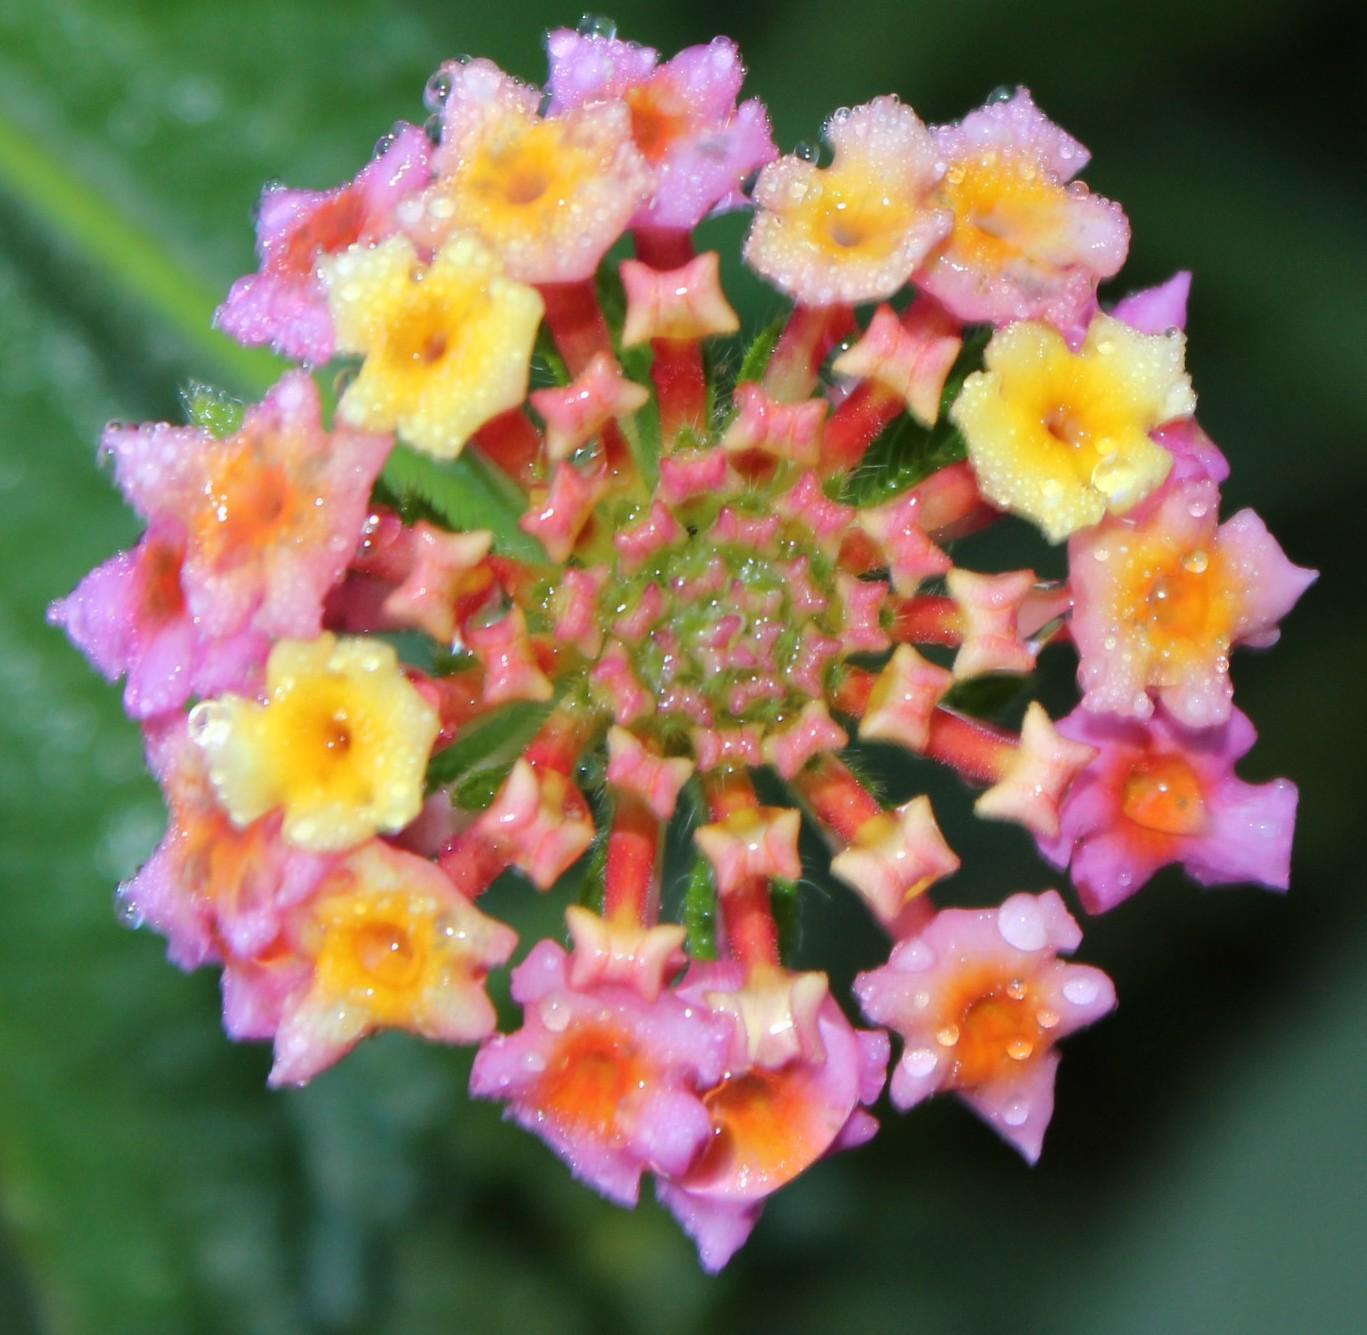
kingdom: Plantae
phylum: Tracheophyta
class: Magnoliopsida
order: Lamiales
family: Verbenaceae
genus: Lantana
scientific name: Lantana camara
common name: Lantana
